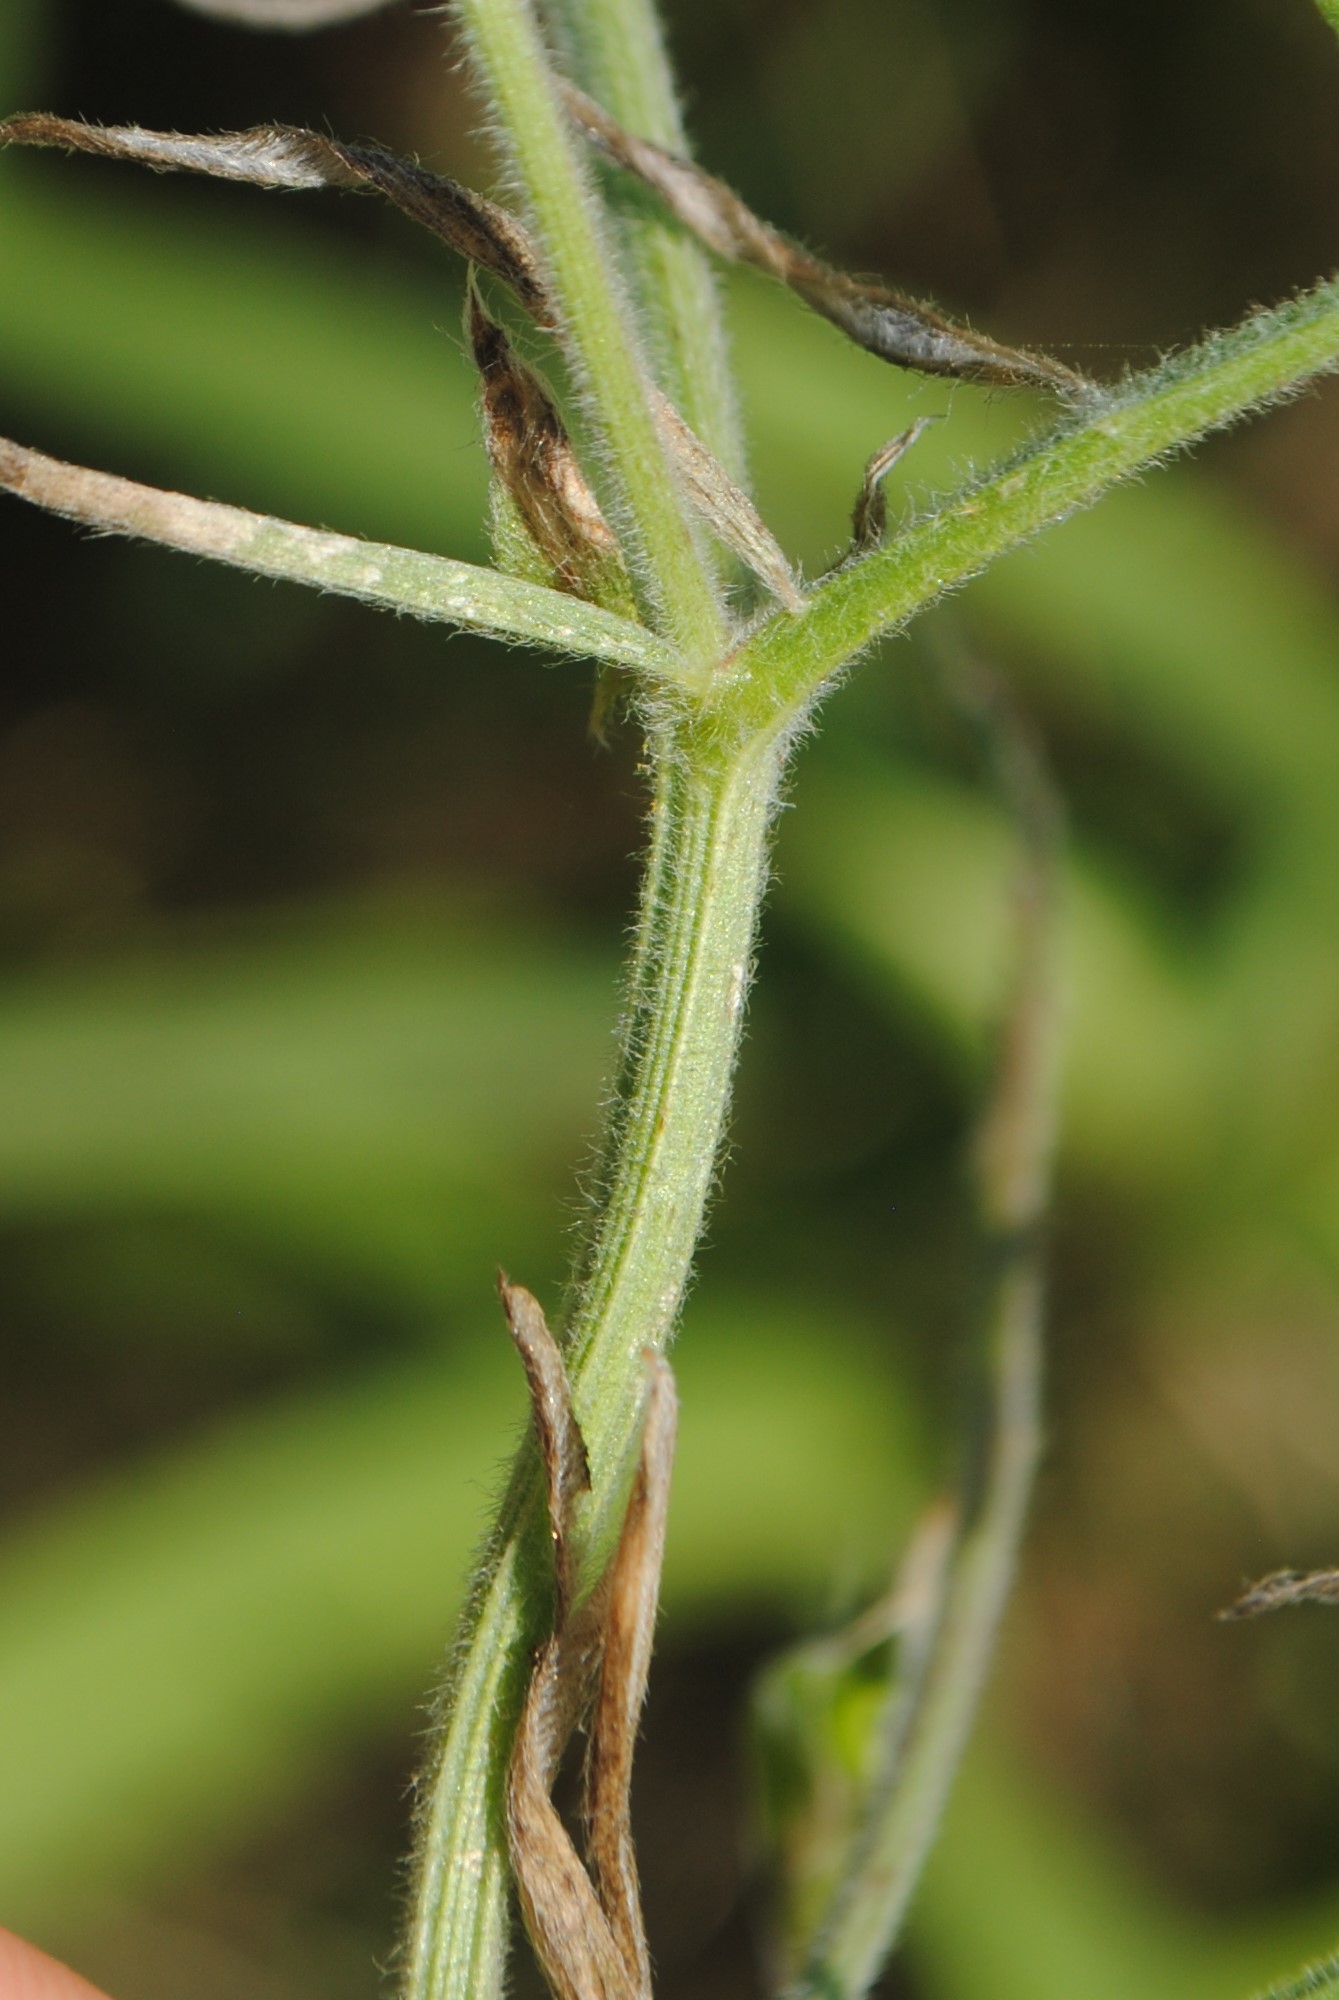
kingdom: Plantae
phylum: Tracheophyta
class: Magnoliopsida
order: Fabales
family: Fabaceae
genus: Vicia
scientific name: Vicia villosa
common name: Fodder vetch
